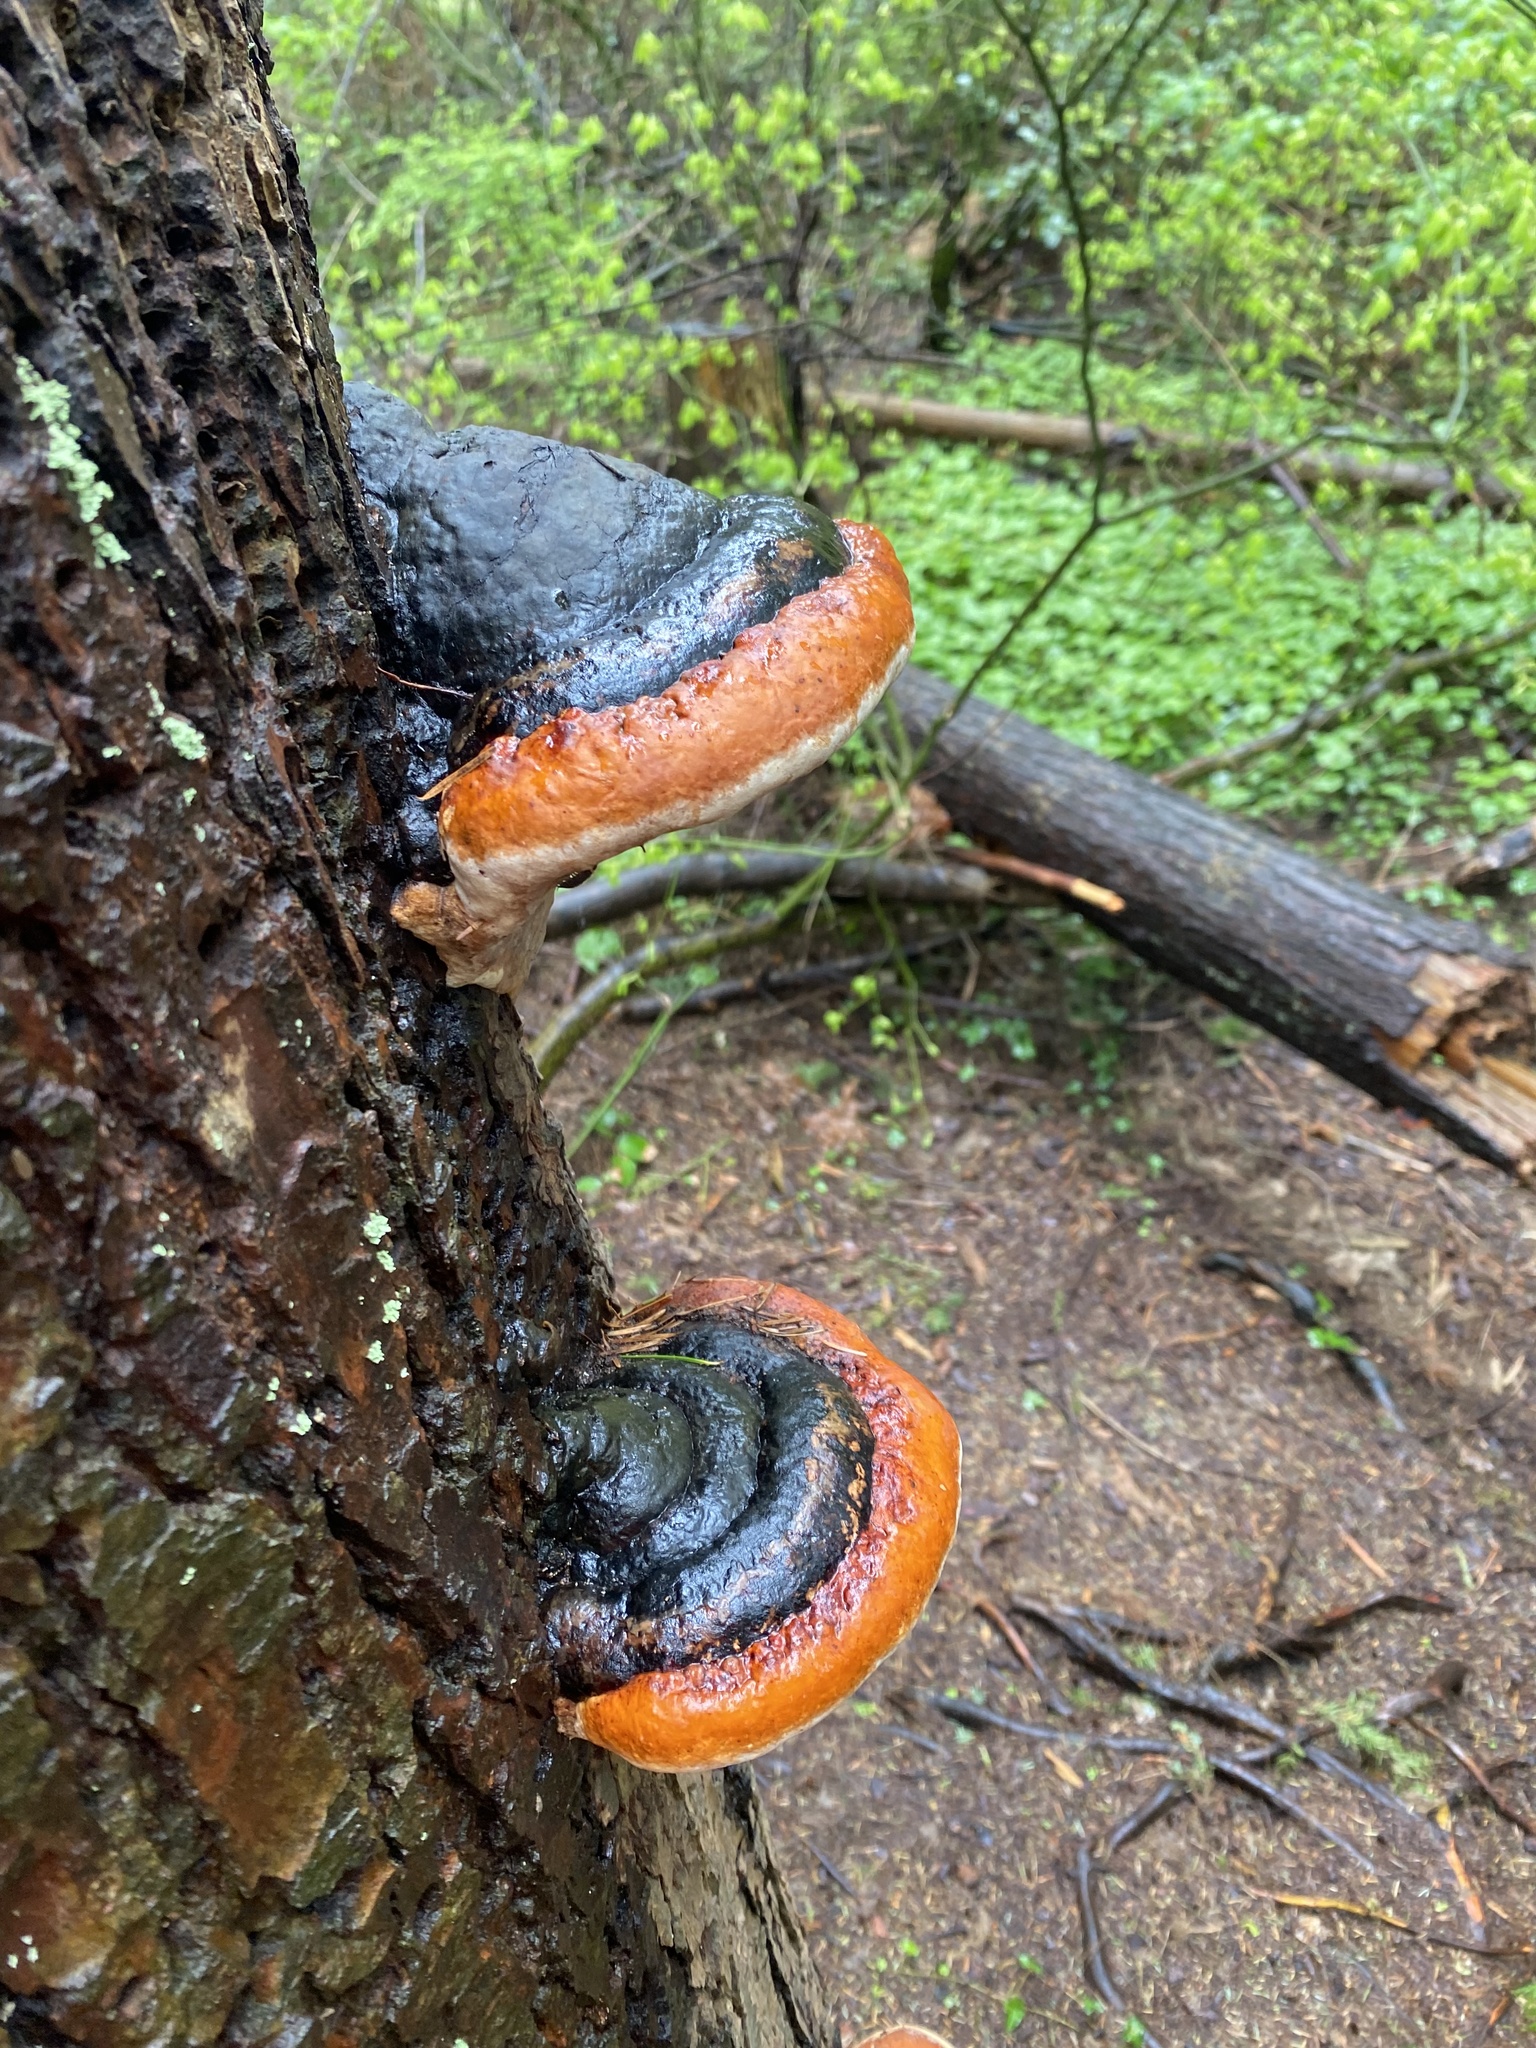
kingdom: Fungi
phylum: Basidiomycota
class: Agaricomycetes
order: Polyporales
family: Fomitopsidaceae
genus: Fomitopsis
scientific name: Fomitopsis mounceae
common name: Northern red belt
